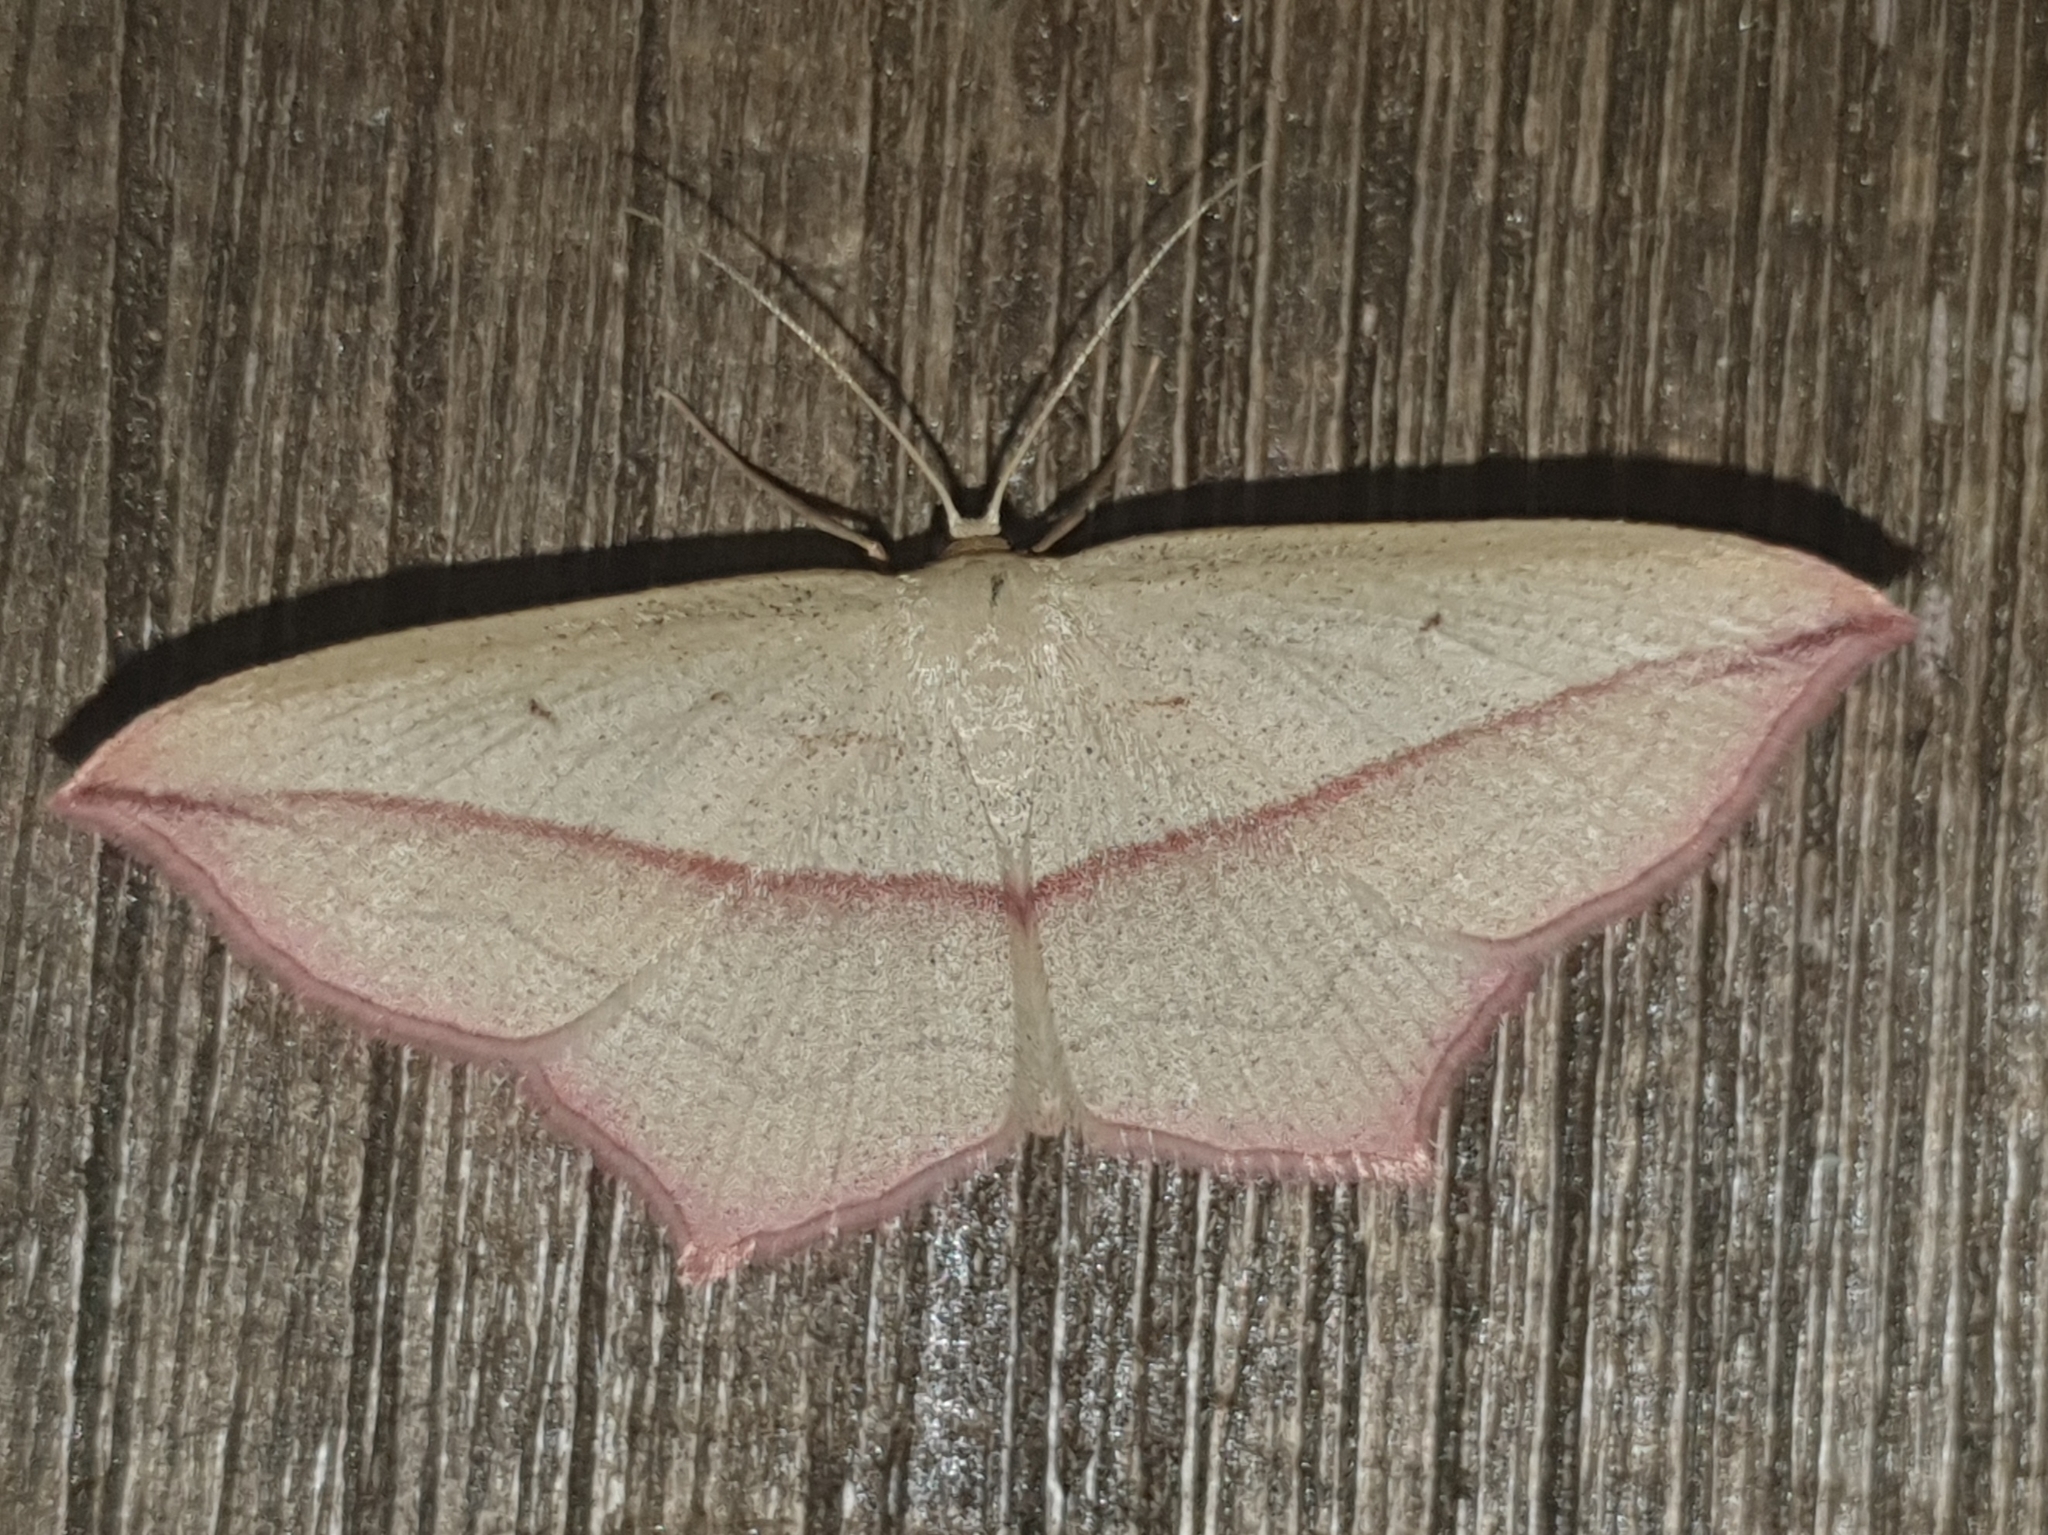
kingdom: Animalia
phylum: Arthropoda
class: Insecta
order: Lepidoptera
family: Geometridae
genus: Timandra
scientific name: Timandra comae
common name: Blood-vein
